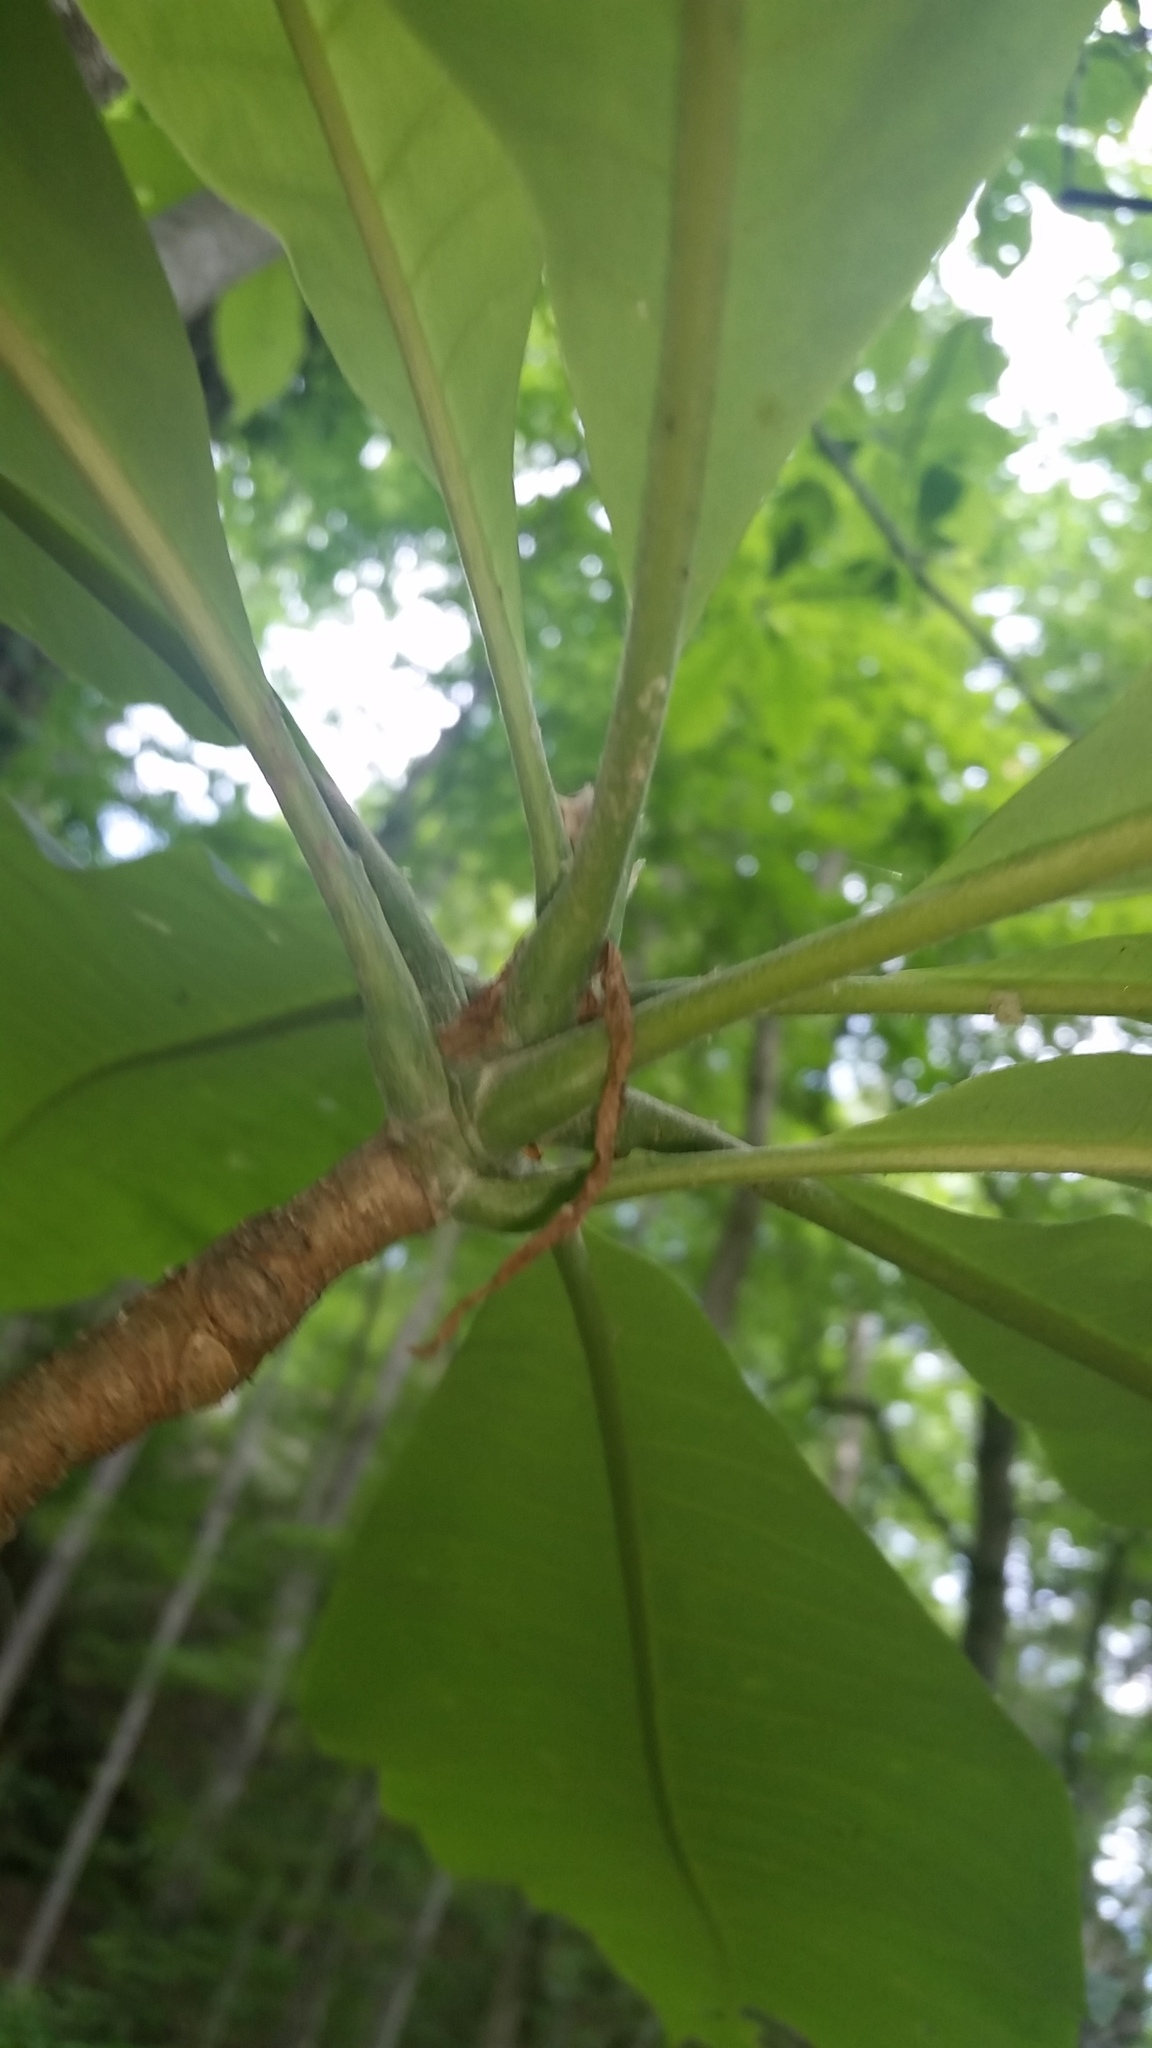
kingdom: Plantae
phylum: Tracheophyta
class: Magnoliopsida
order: Magnoliales
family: Magnoliaceae
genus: Magnolia
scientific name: Magnolia tripetala
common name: Umbrella magnolia
